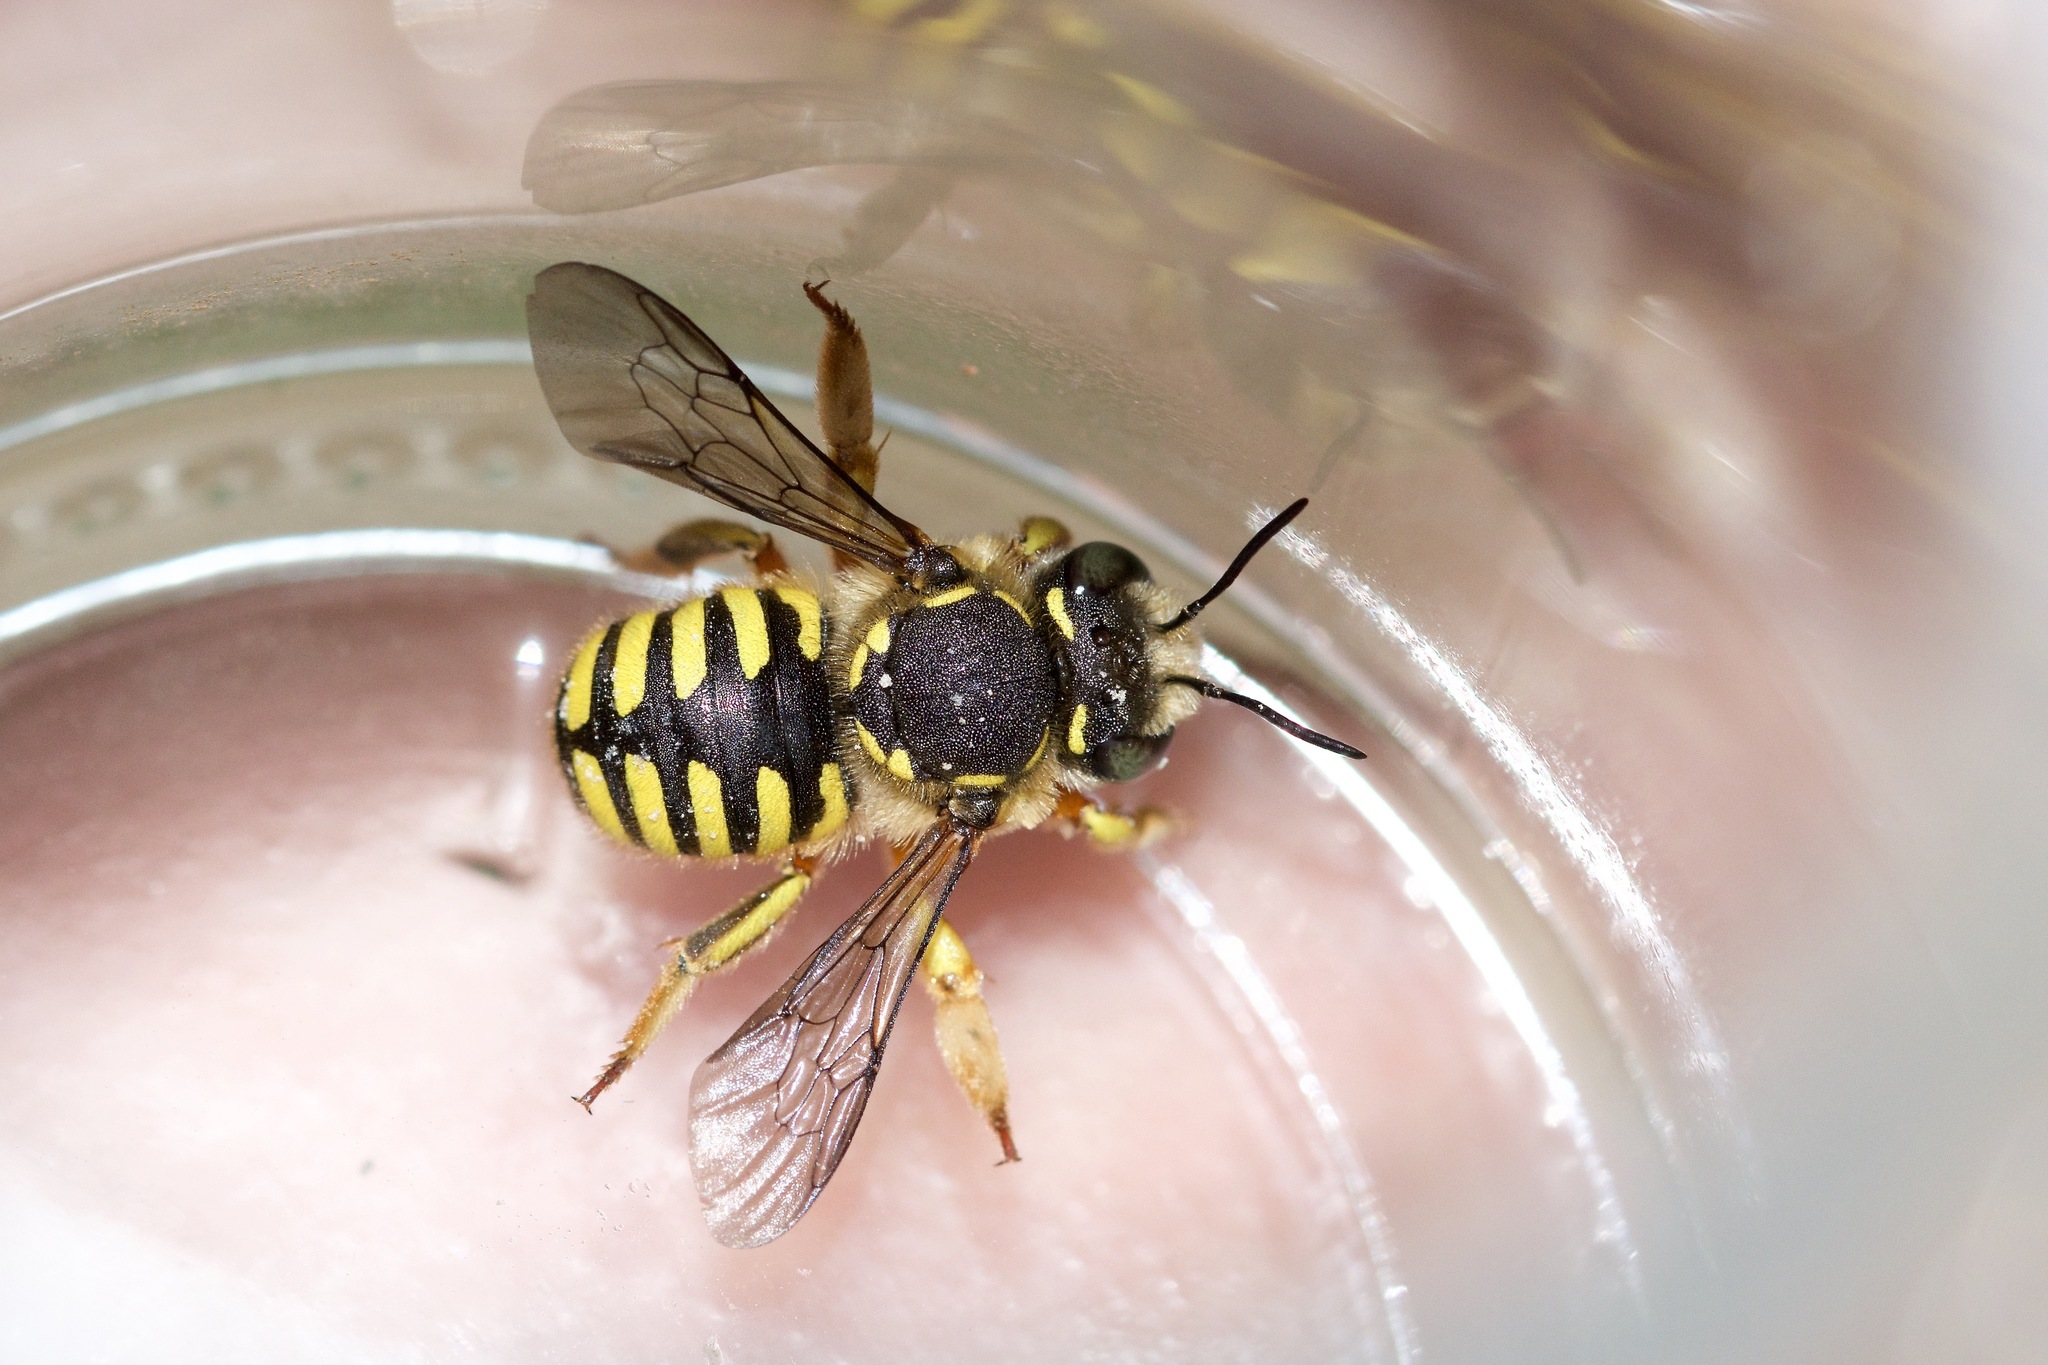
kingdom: Animalia
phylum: Arthropoda
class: Insecta
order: Hymenoptera
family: Megachilidae
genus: Anthidium
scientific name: Anthidium manicatum
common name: Wool carder bee
